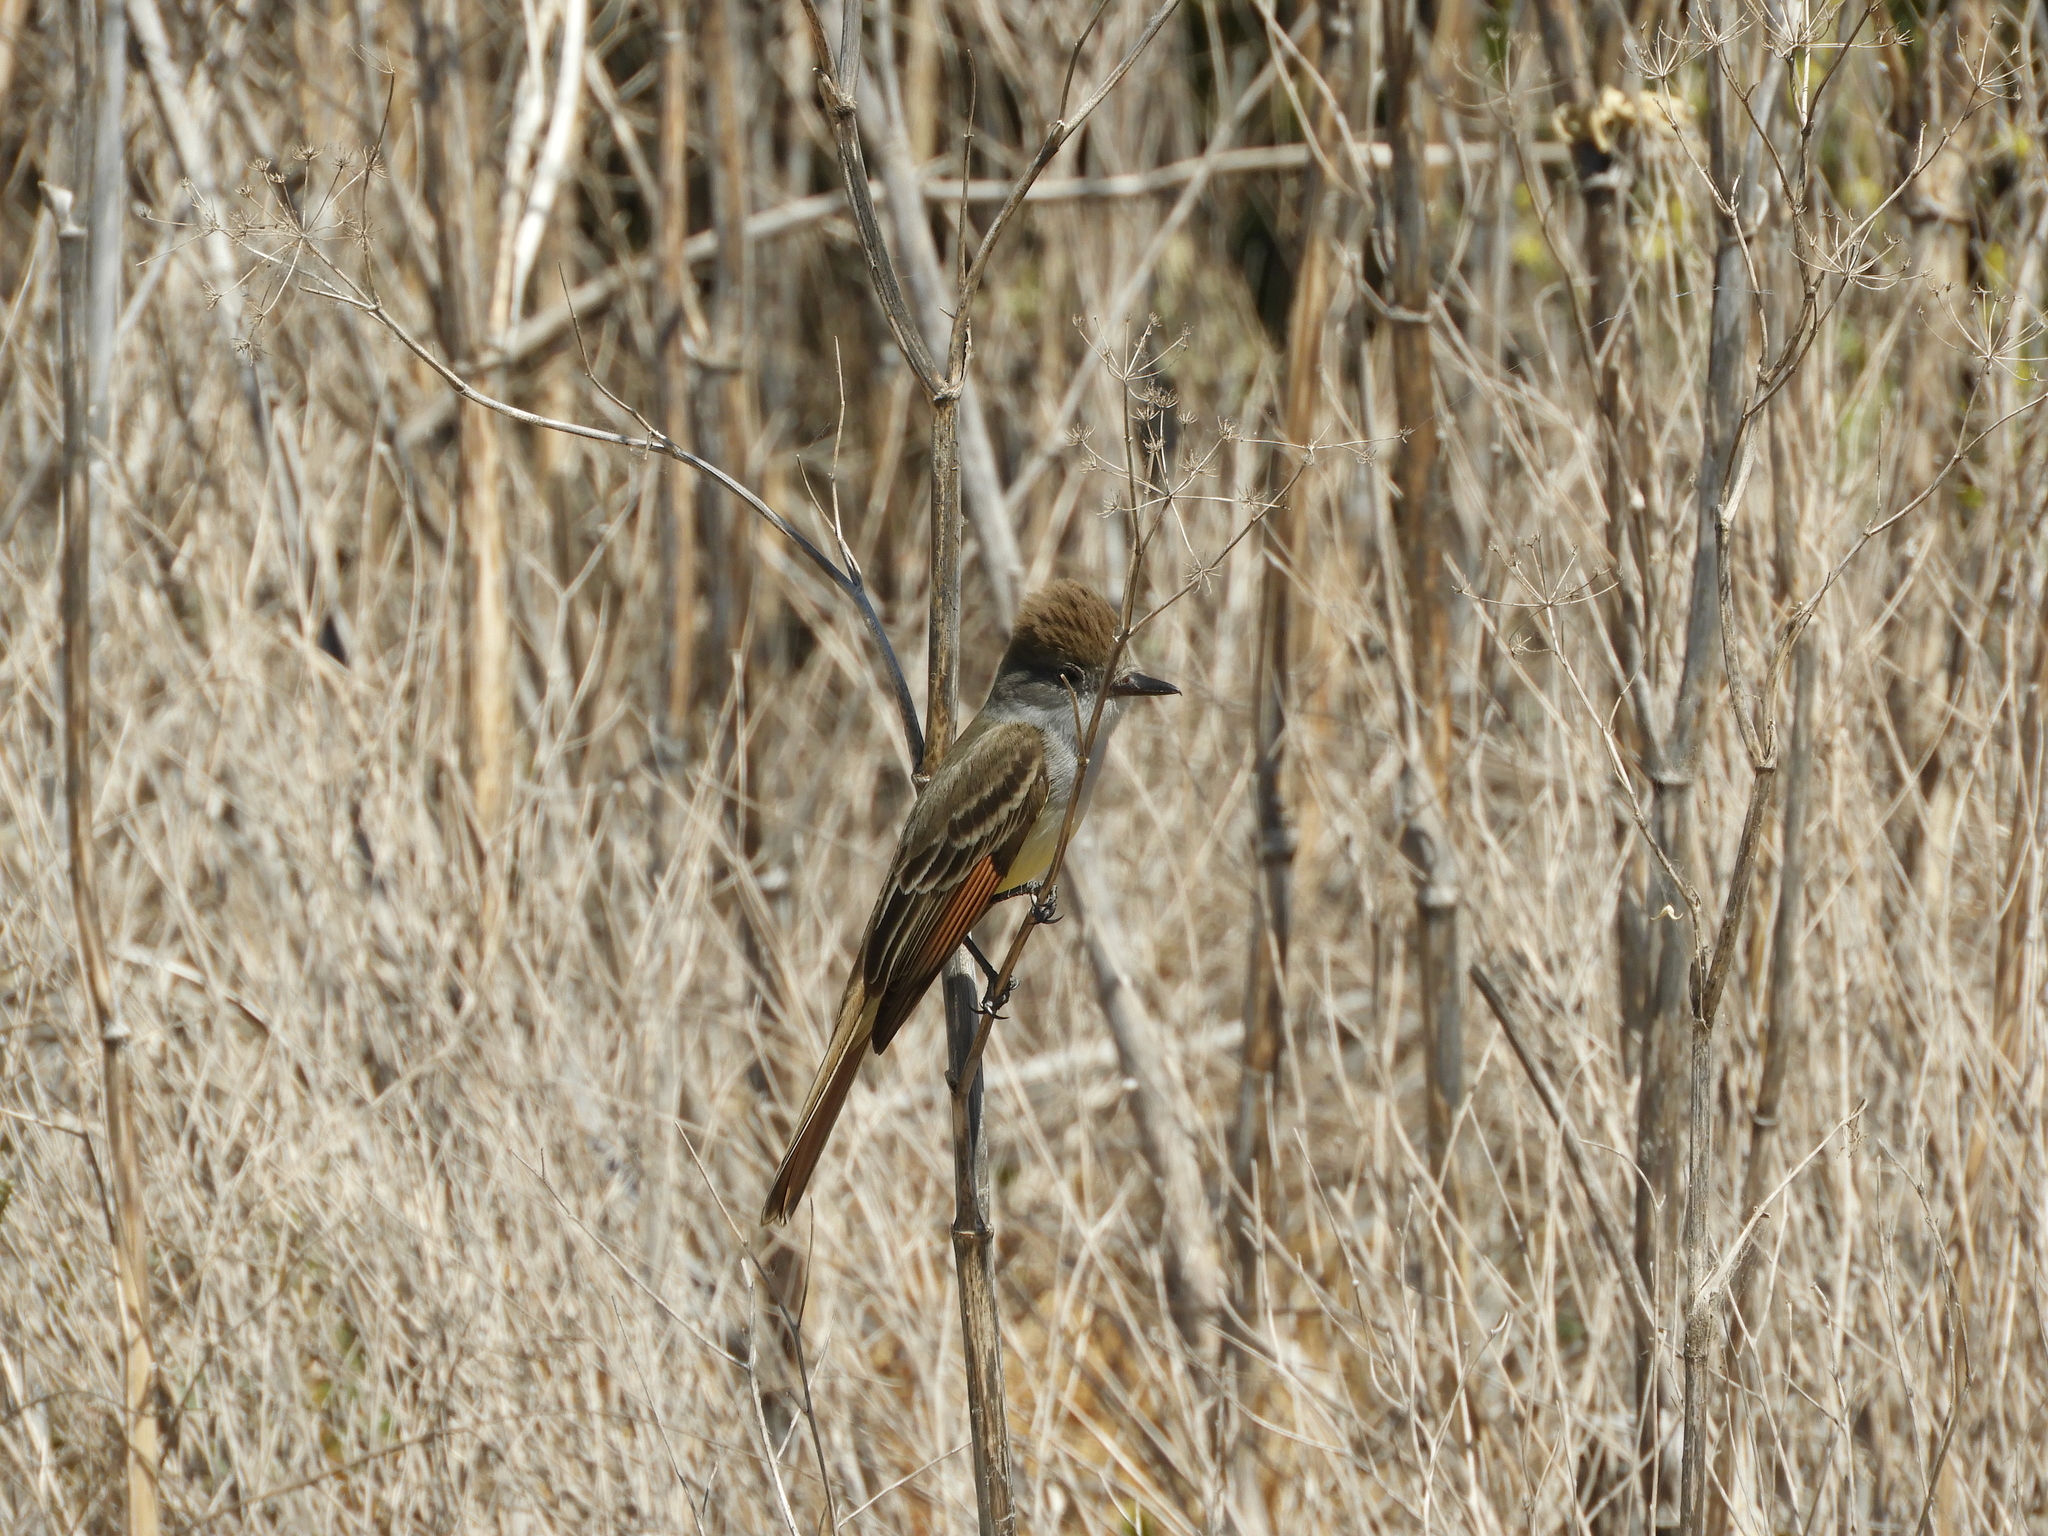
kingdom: Animalia
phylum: Chordata
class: Aves
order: Passeriformes
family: Tyrannidae
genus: Myiarchus
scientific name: Myiarchus cinerascens
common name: Ash-throated flycatcher
